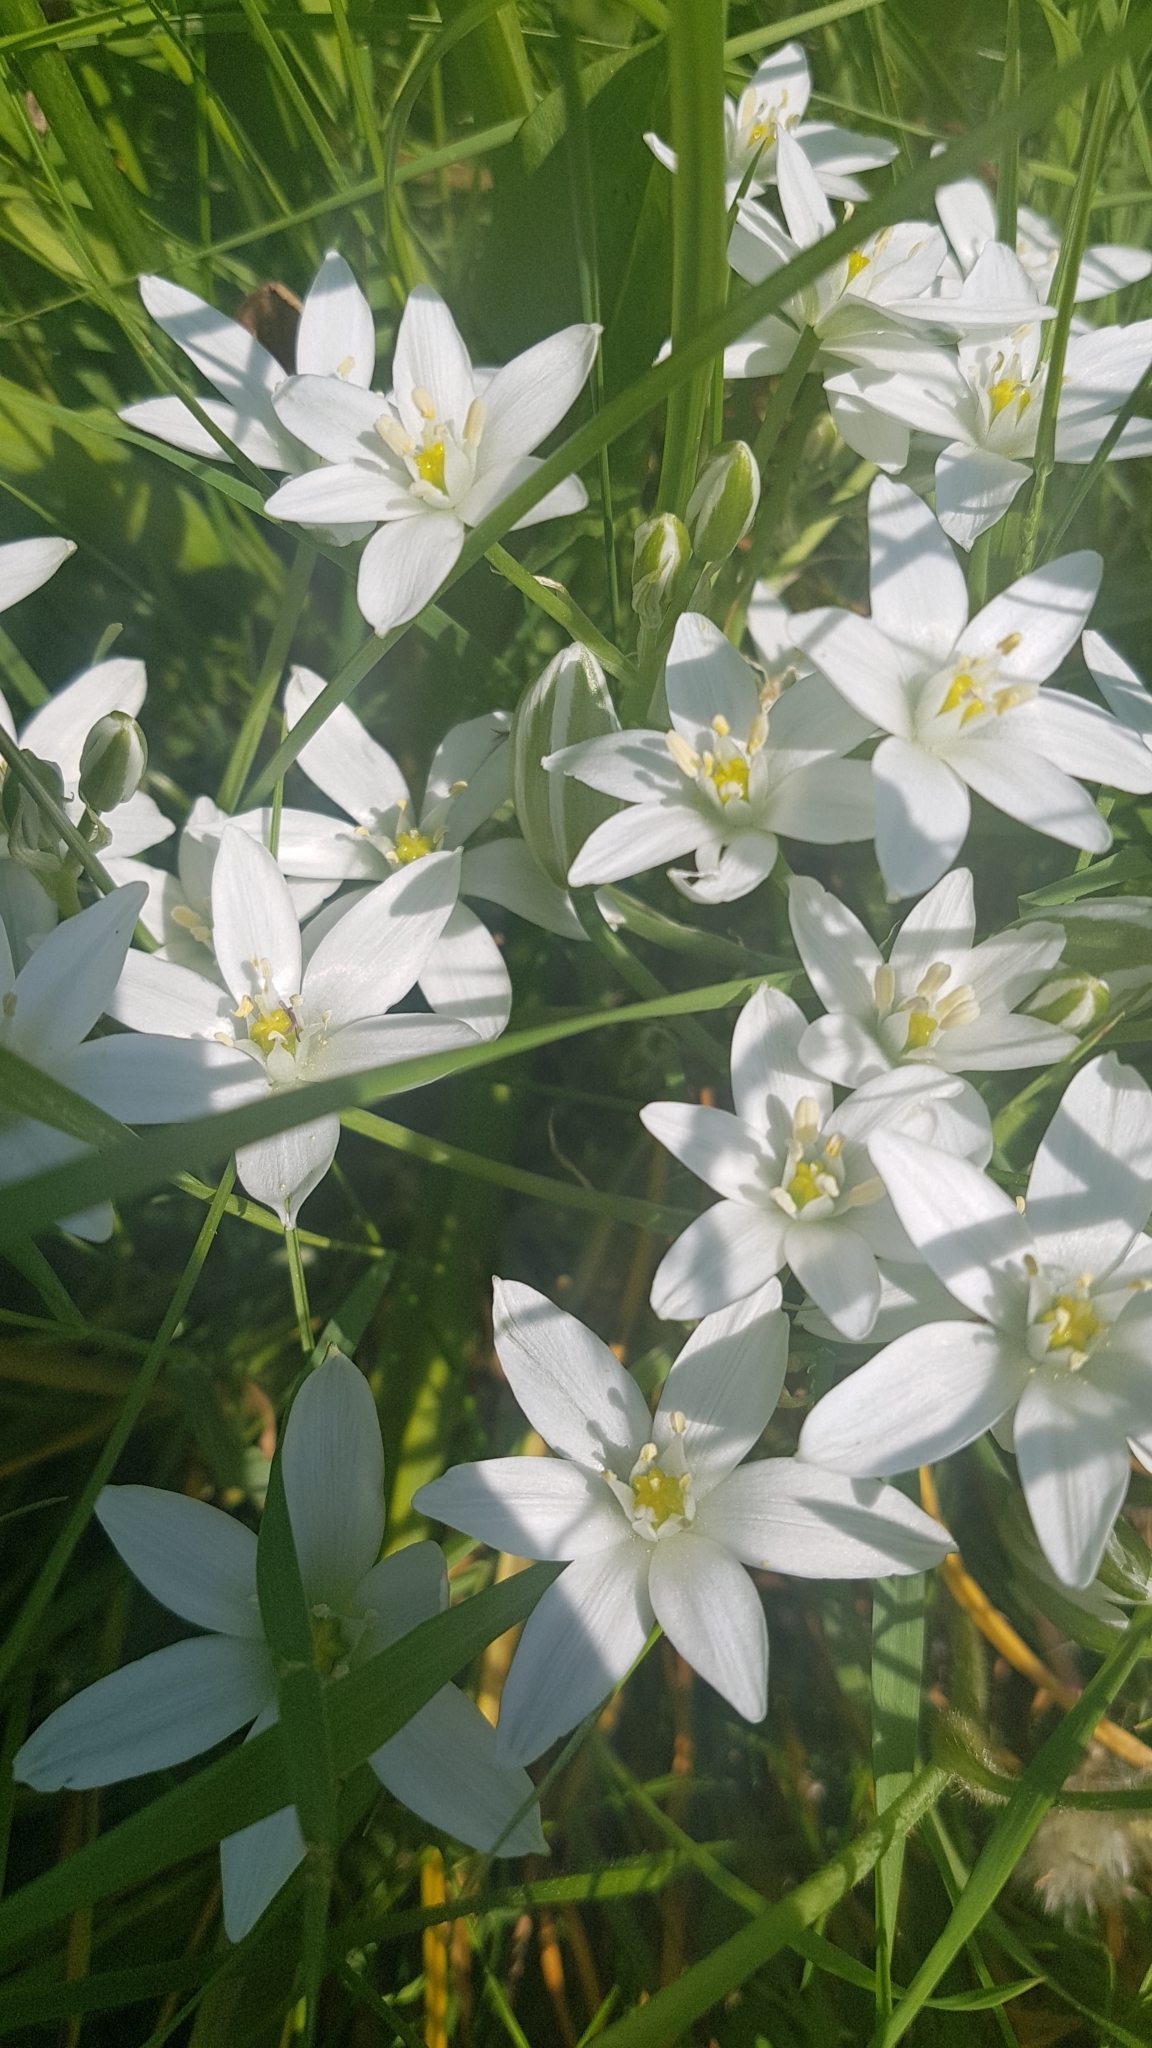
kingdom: Plantae
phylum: Tracheophyta
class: Liliopsida
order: Asparagales
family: Asparagaceae
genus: Ornithogalum
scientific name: Ornithogalum umbellatum
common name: Garden star-of-bethlehem
